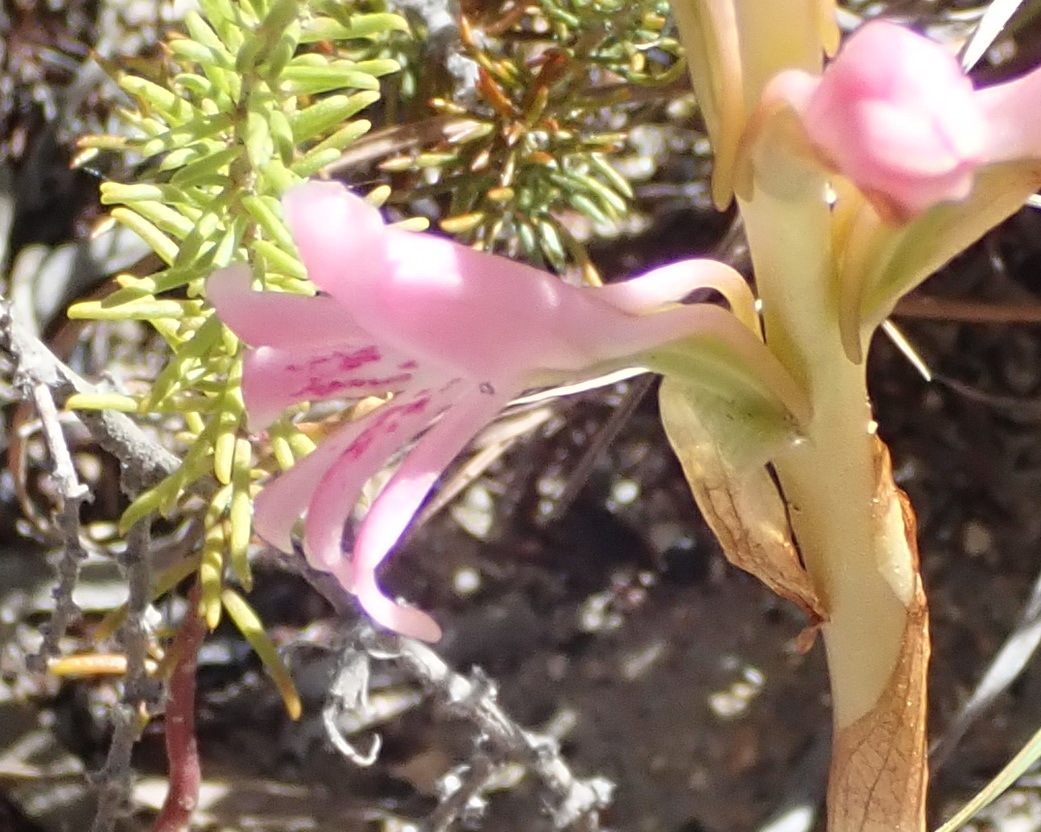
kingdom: Plantae
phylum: Tracheophyta
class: Liliopsida
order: Asparagales
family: Orchidaceae
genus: Satyrium
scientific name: Satyrium erectum
